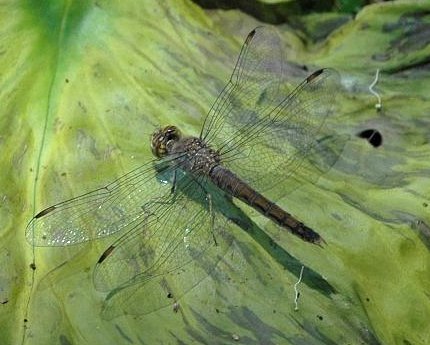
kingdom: Animalia
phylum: Arthropoda
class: Insecta
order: Odonata
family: Libellulidae
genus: Brachythemis
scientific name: Brachythemis leucosticta
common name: Banded groundling
